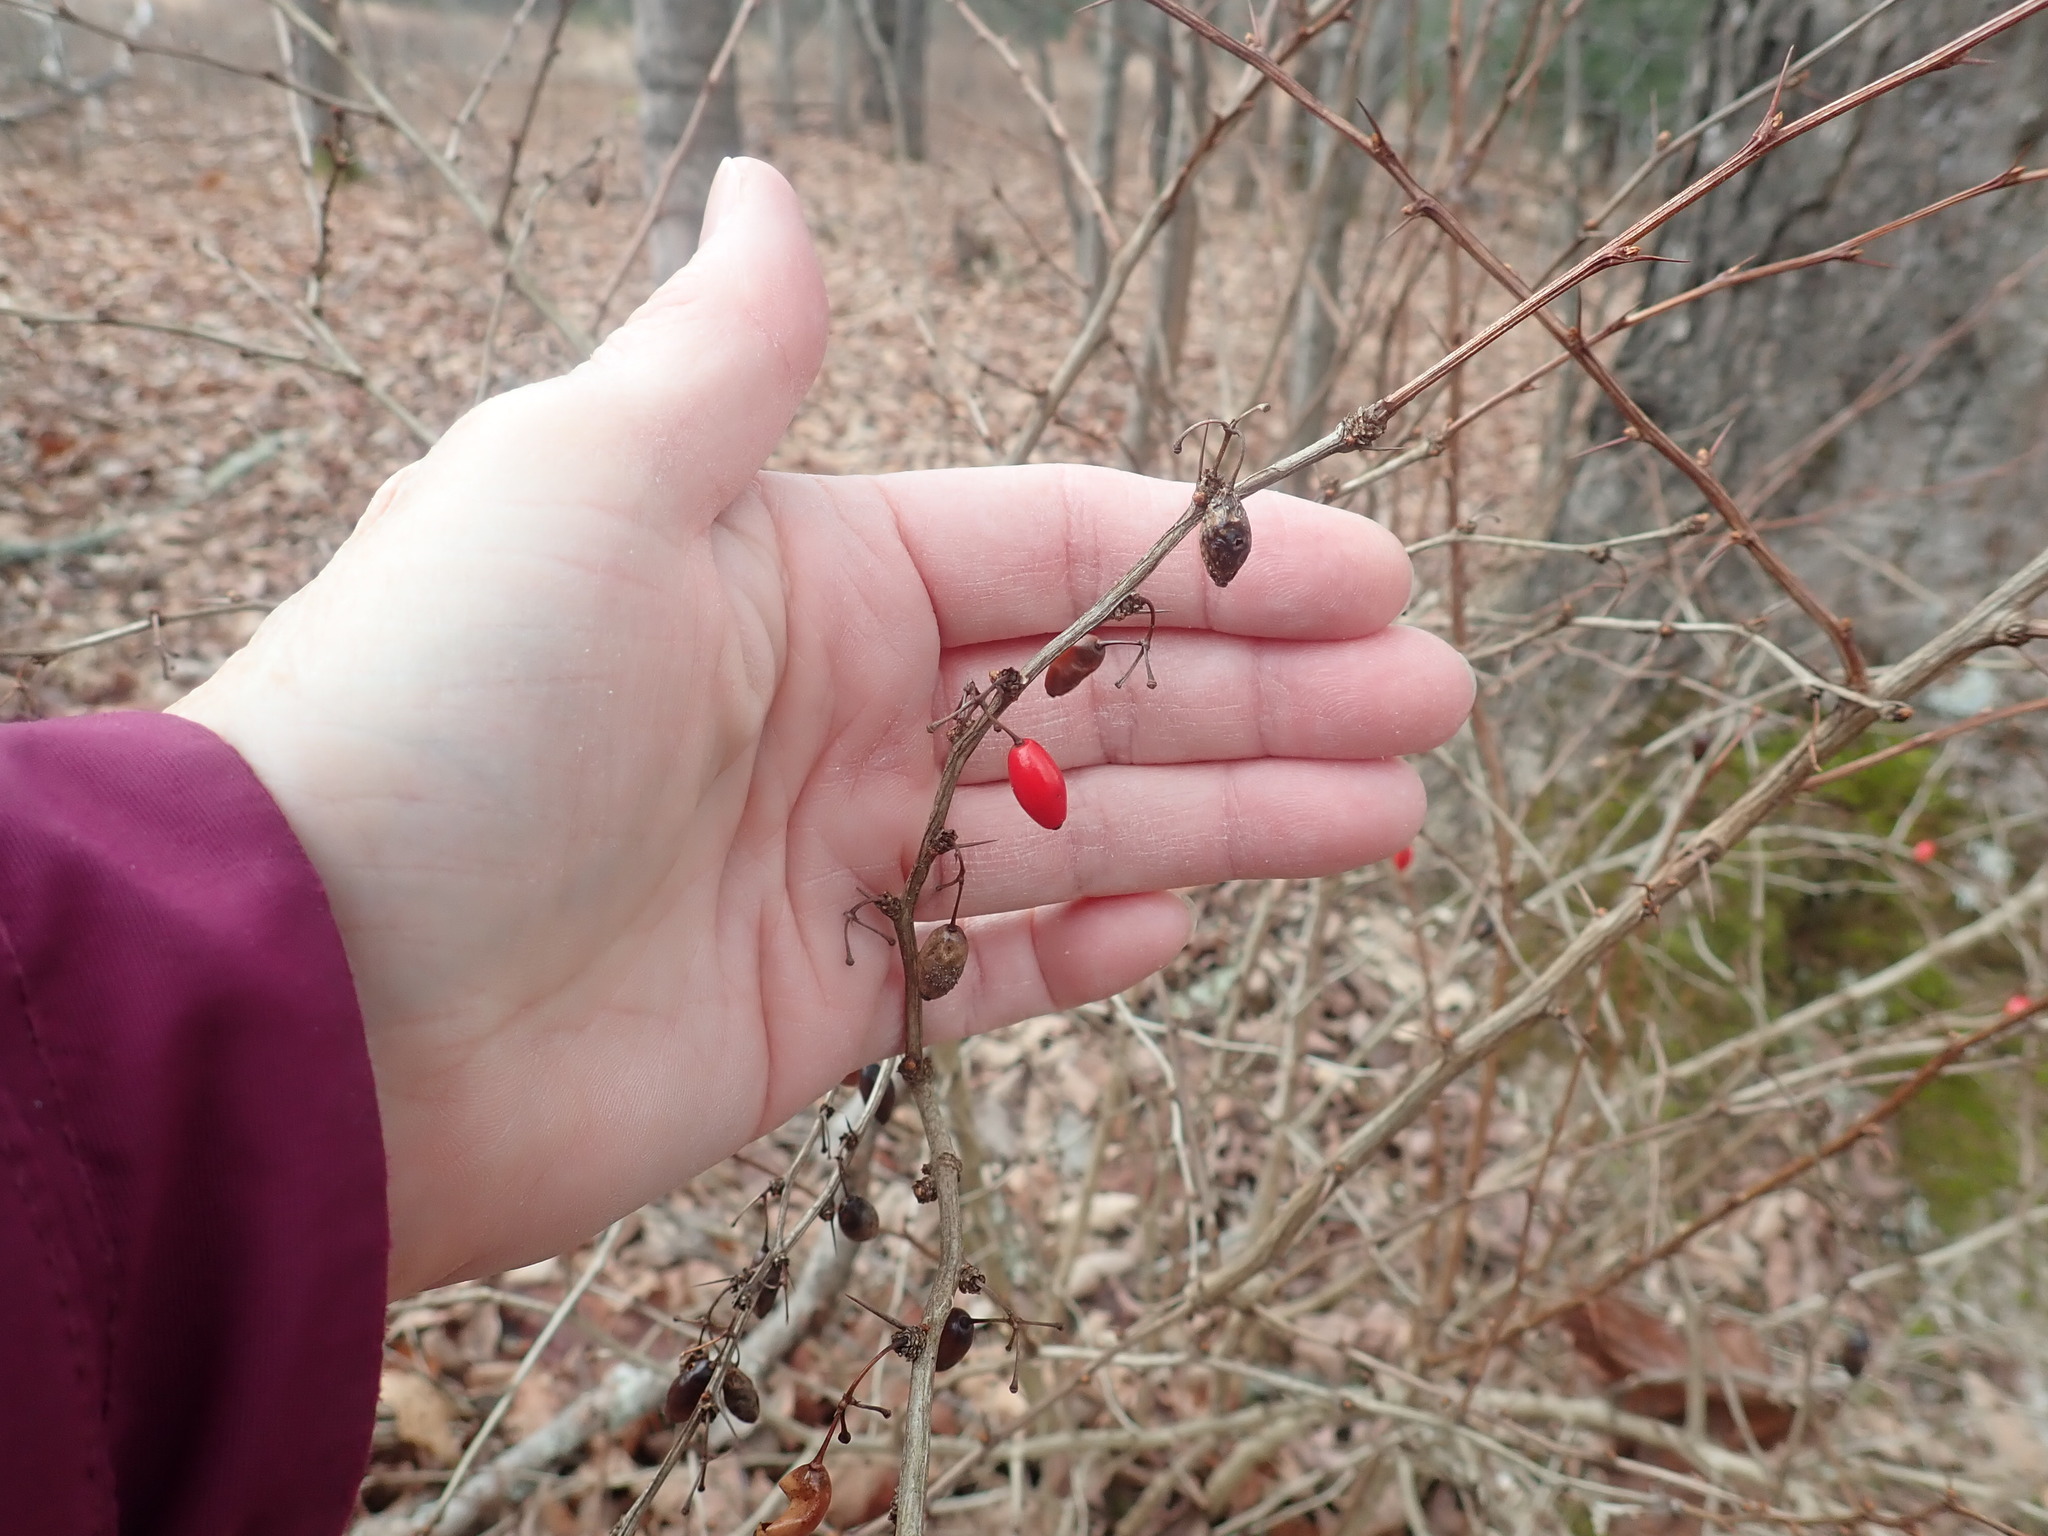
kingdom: Plantae
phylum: Tracheophyta
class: Magnoliopsida
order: Ranunculales
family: Berberidaceae
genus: Berberis
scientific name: Berberis thunbergii
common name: Japanese barberry
